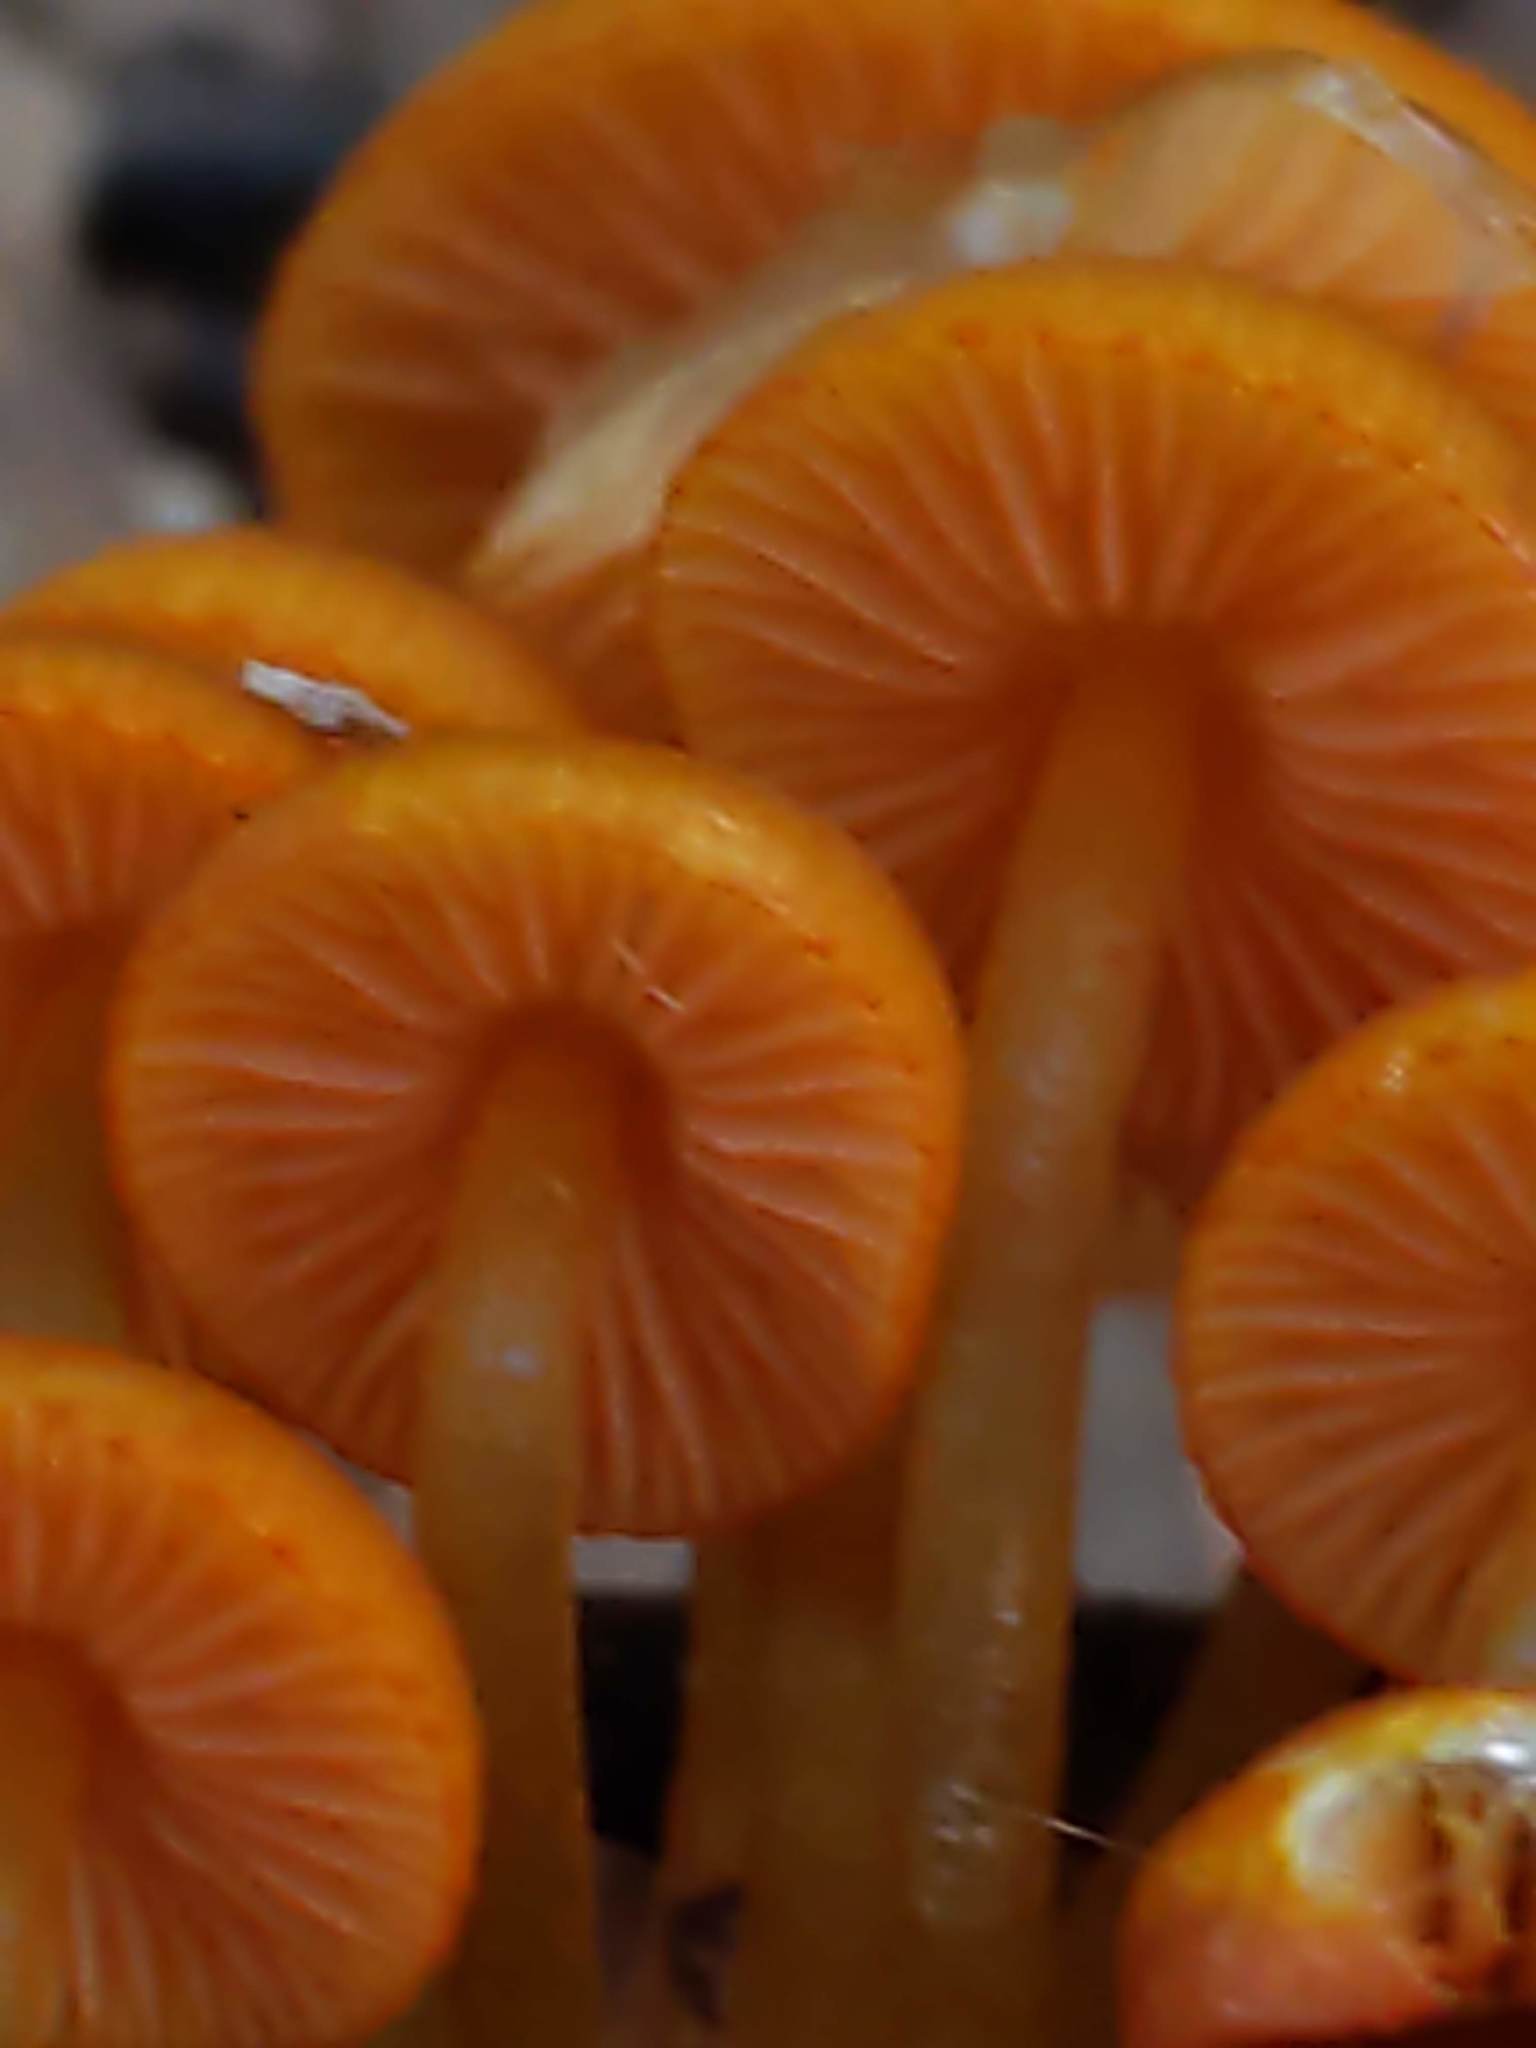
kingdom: Fungi
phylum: Basidiomycota
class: Agaricomycetes
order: Agaricales
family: Mycenaceae
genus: Mycena
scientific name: Mycena leaiana
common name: Orange mycena
